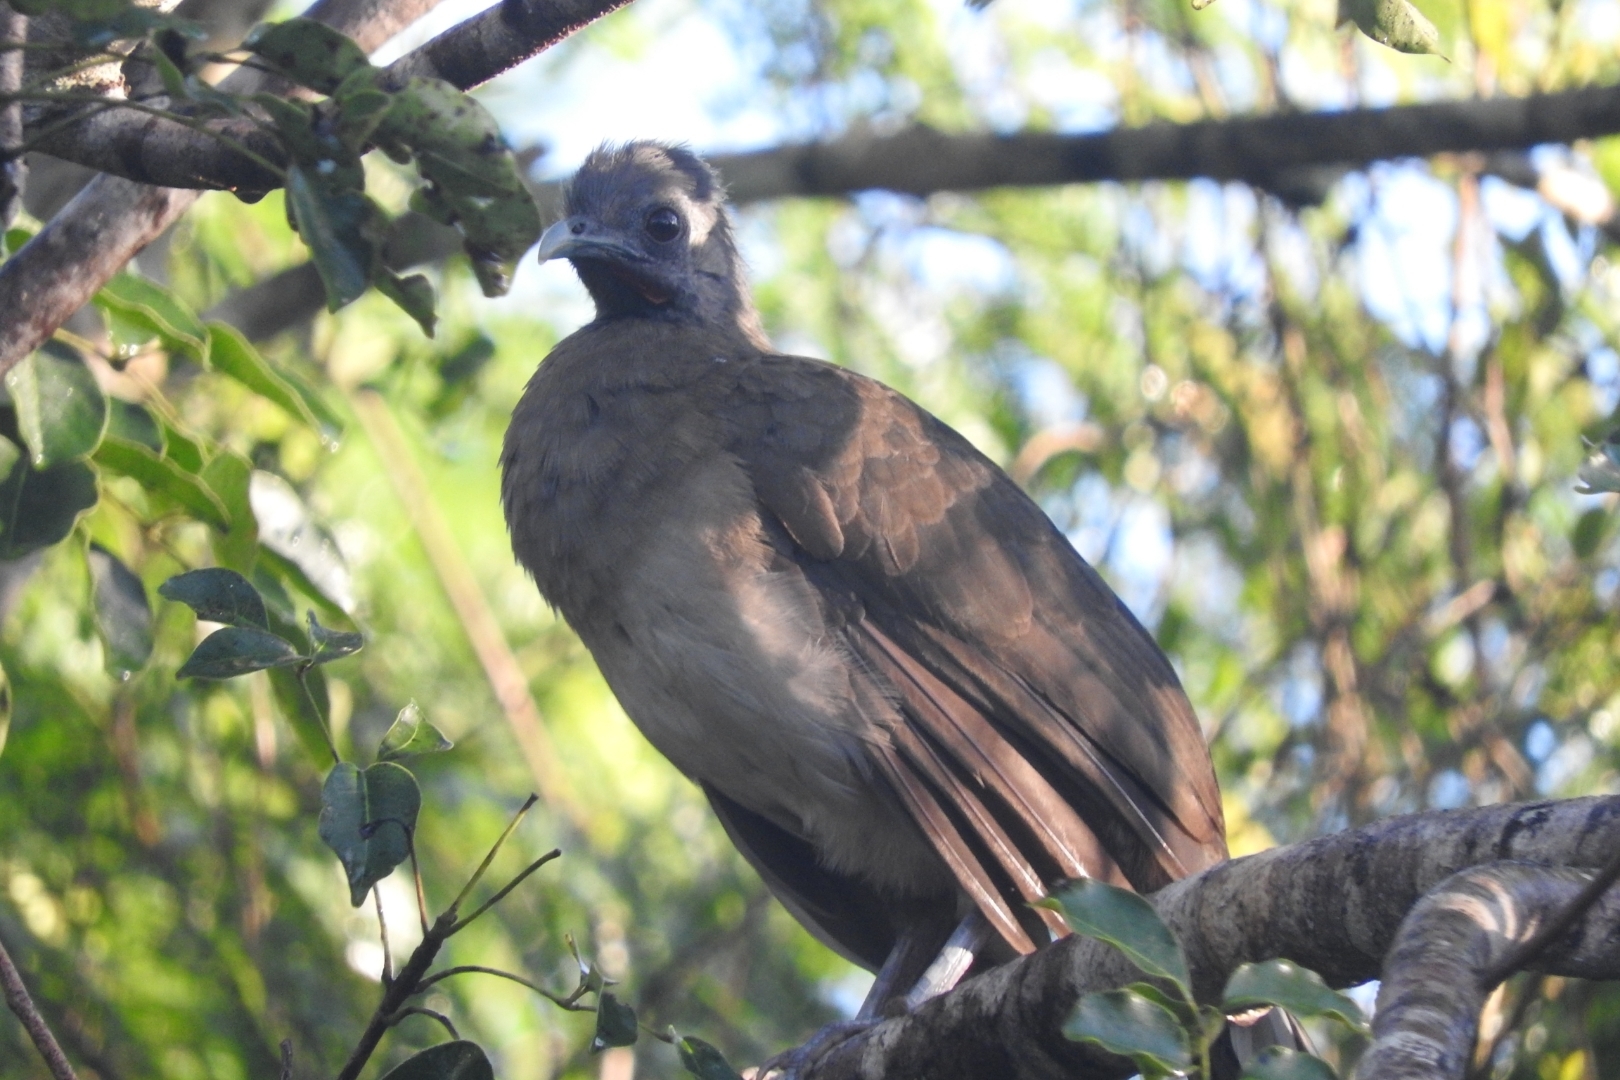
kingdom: Animalia
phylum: Chordata
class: Aves
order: Galliformes
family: Cracidae
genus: Ortalis
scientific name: Ortalis vetula
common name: Plain chachalaca
